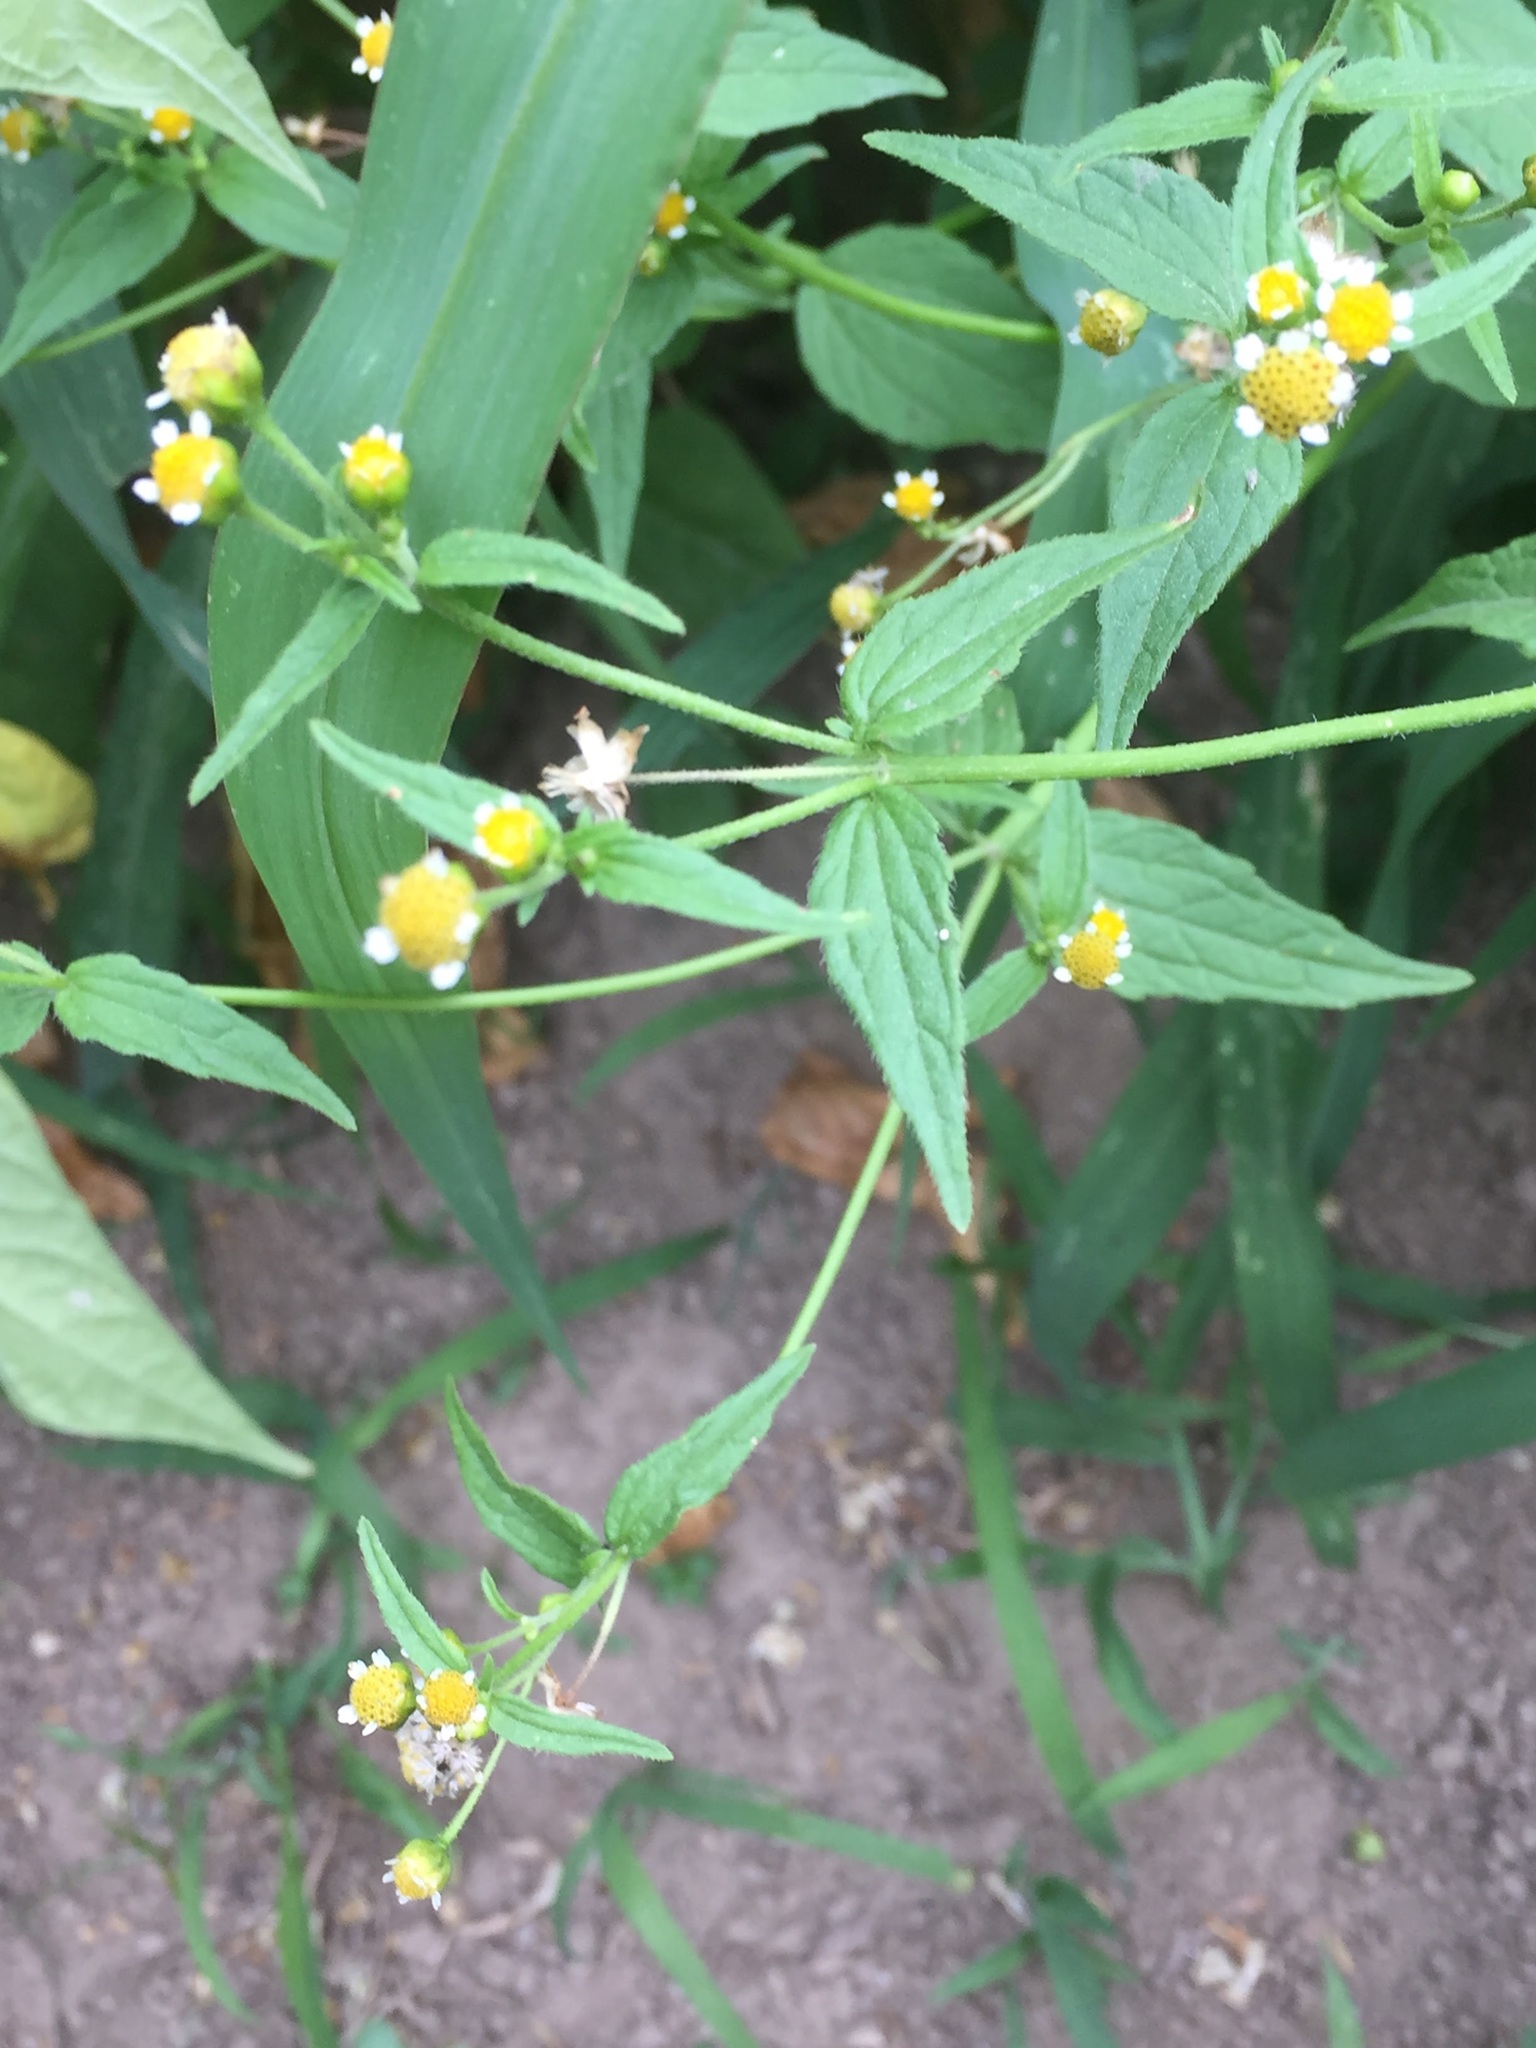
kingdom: Plantae
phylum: Tracheophyta
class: Magnoliopsida
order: Asterales
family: Asteraceae
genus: Galinsoga
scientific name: Galinsoga parviflora
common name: Gallant soldier
